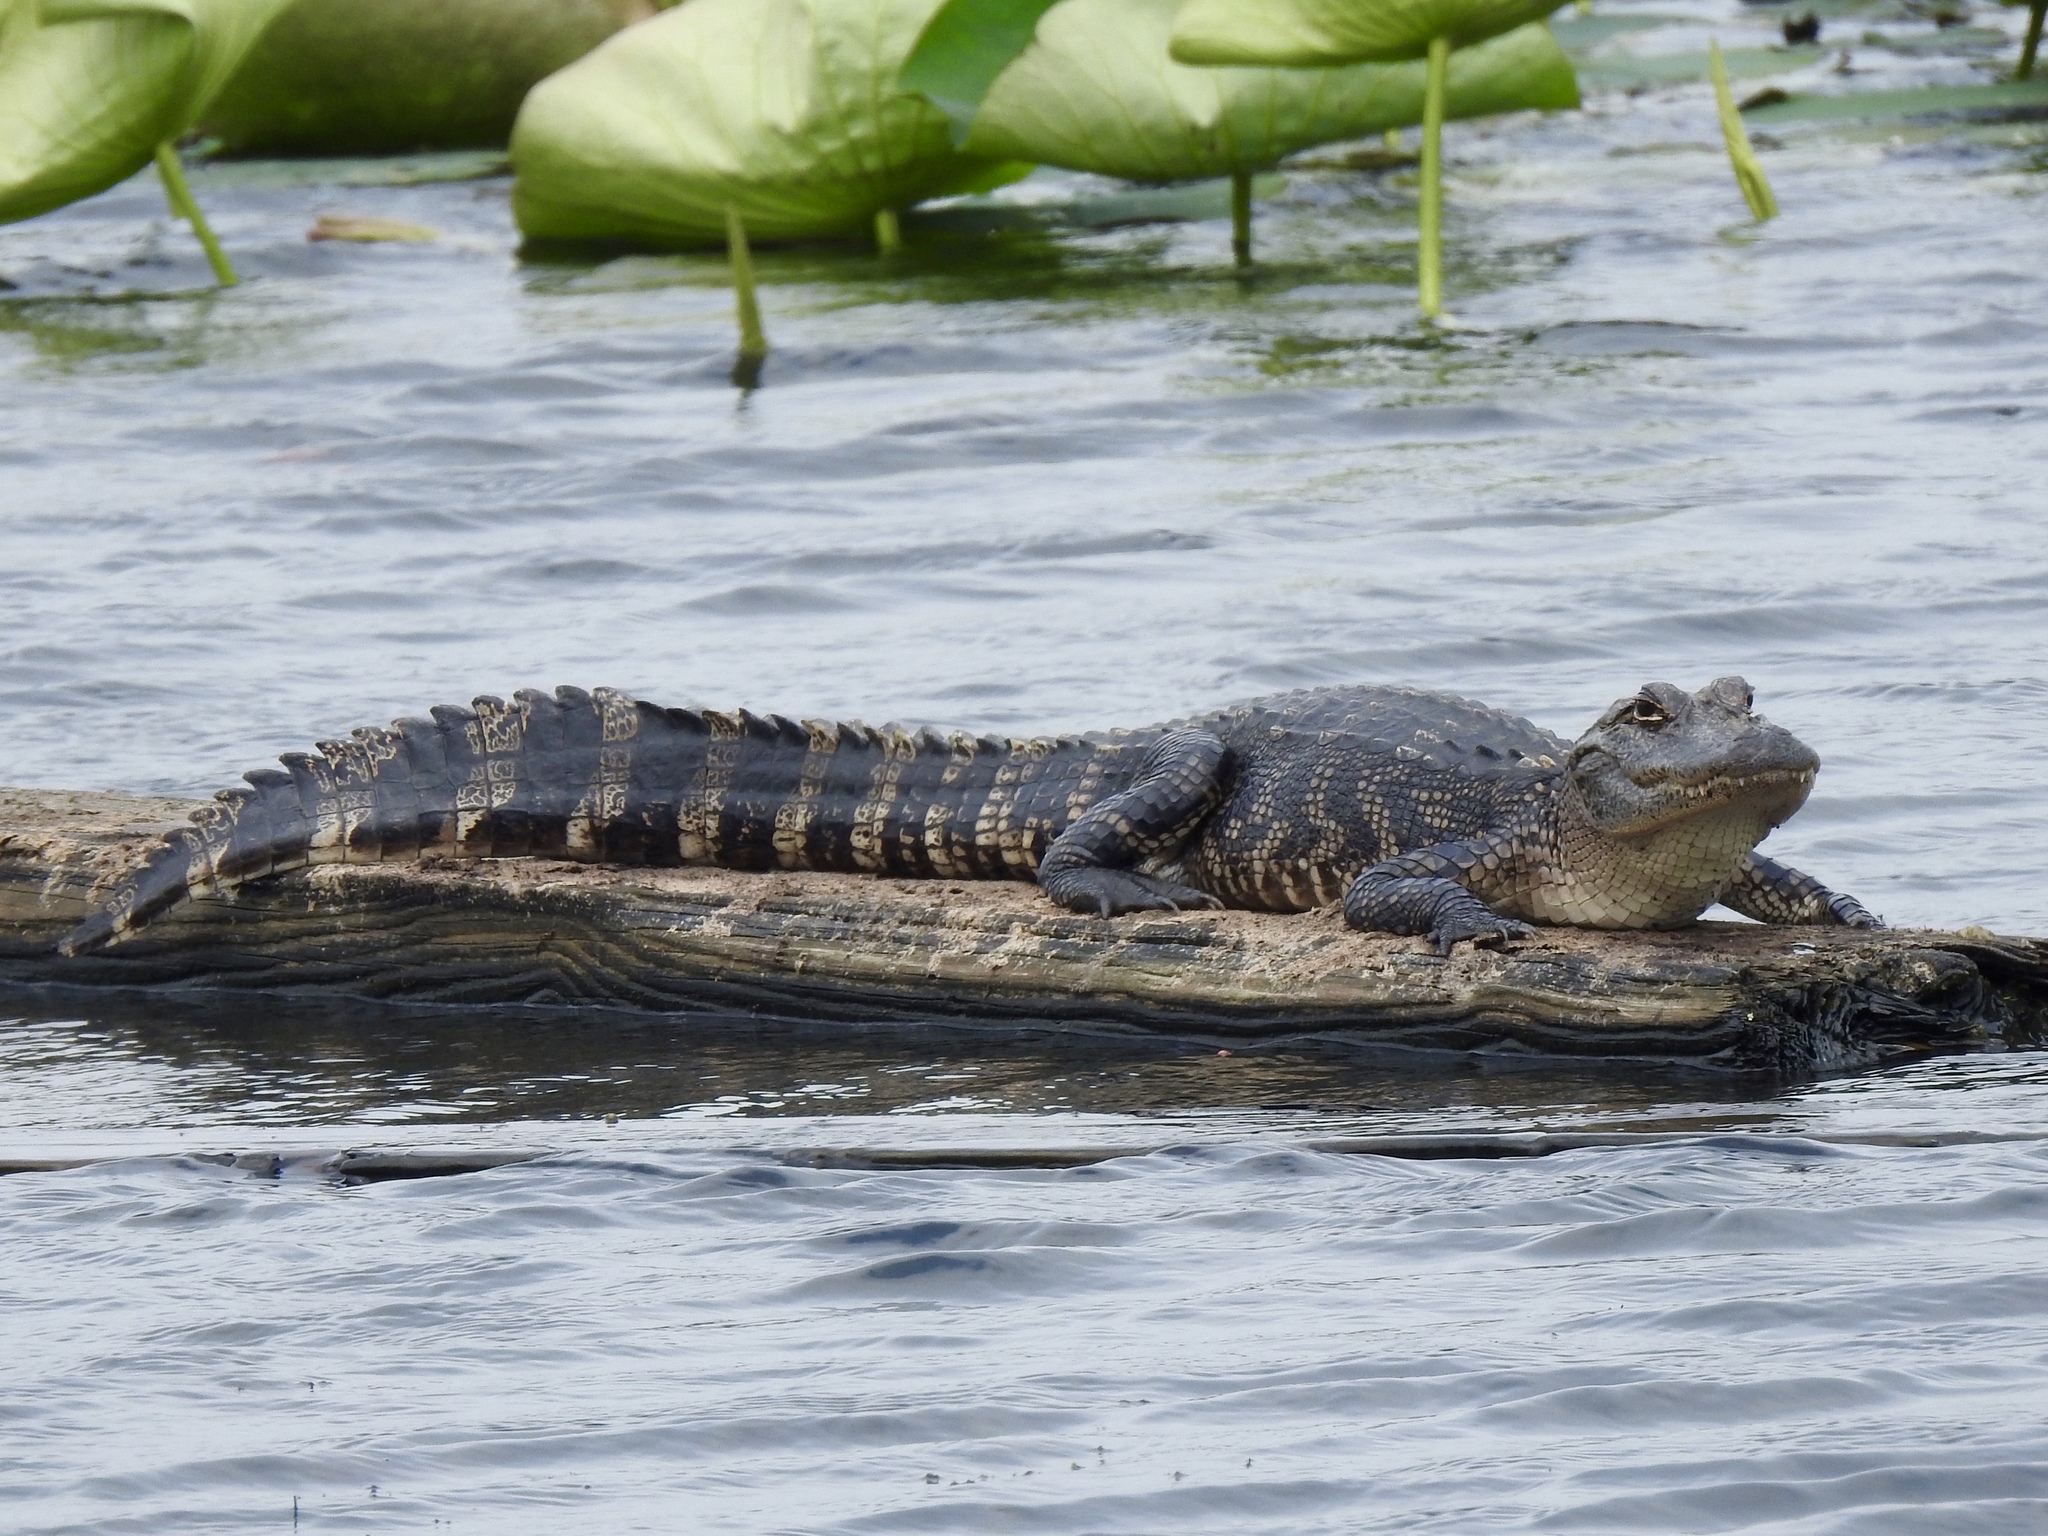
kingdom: Animalia
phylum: Chordata
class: Crocodylia
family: Alligatoridae
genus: Alligator
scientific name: Alligator mississippiensis
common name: American alligator
